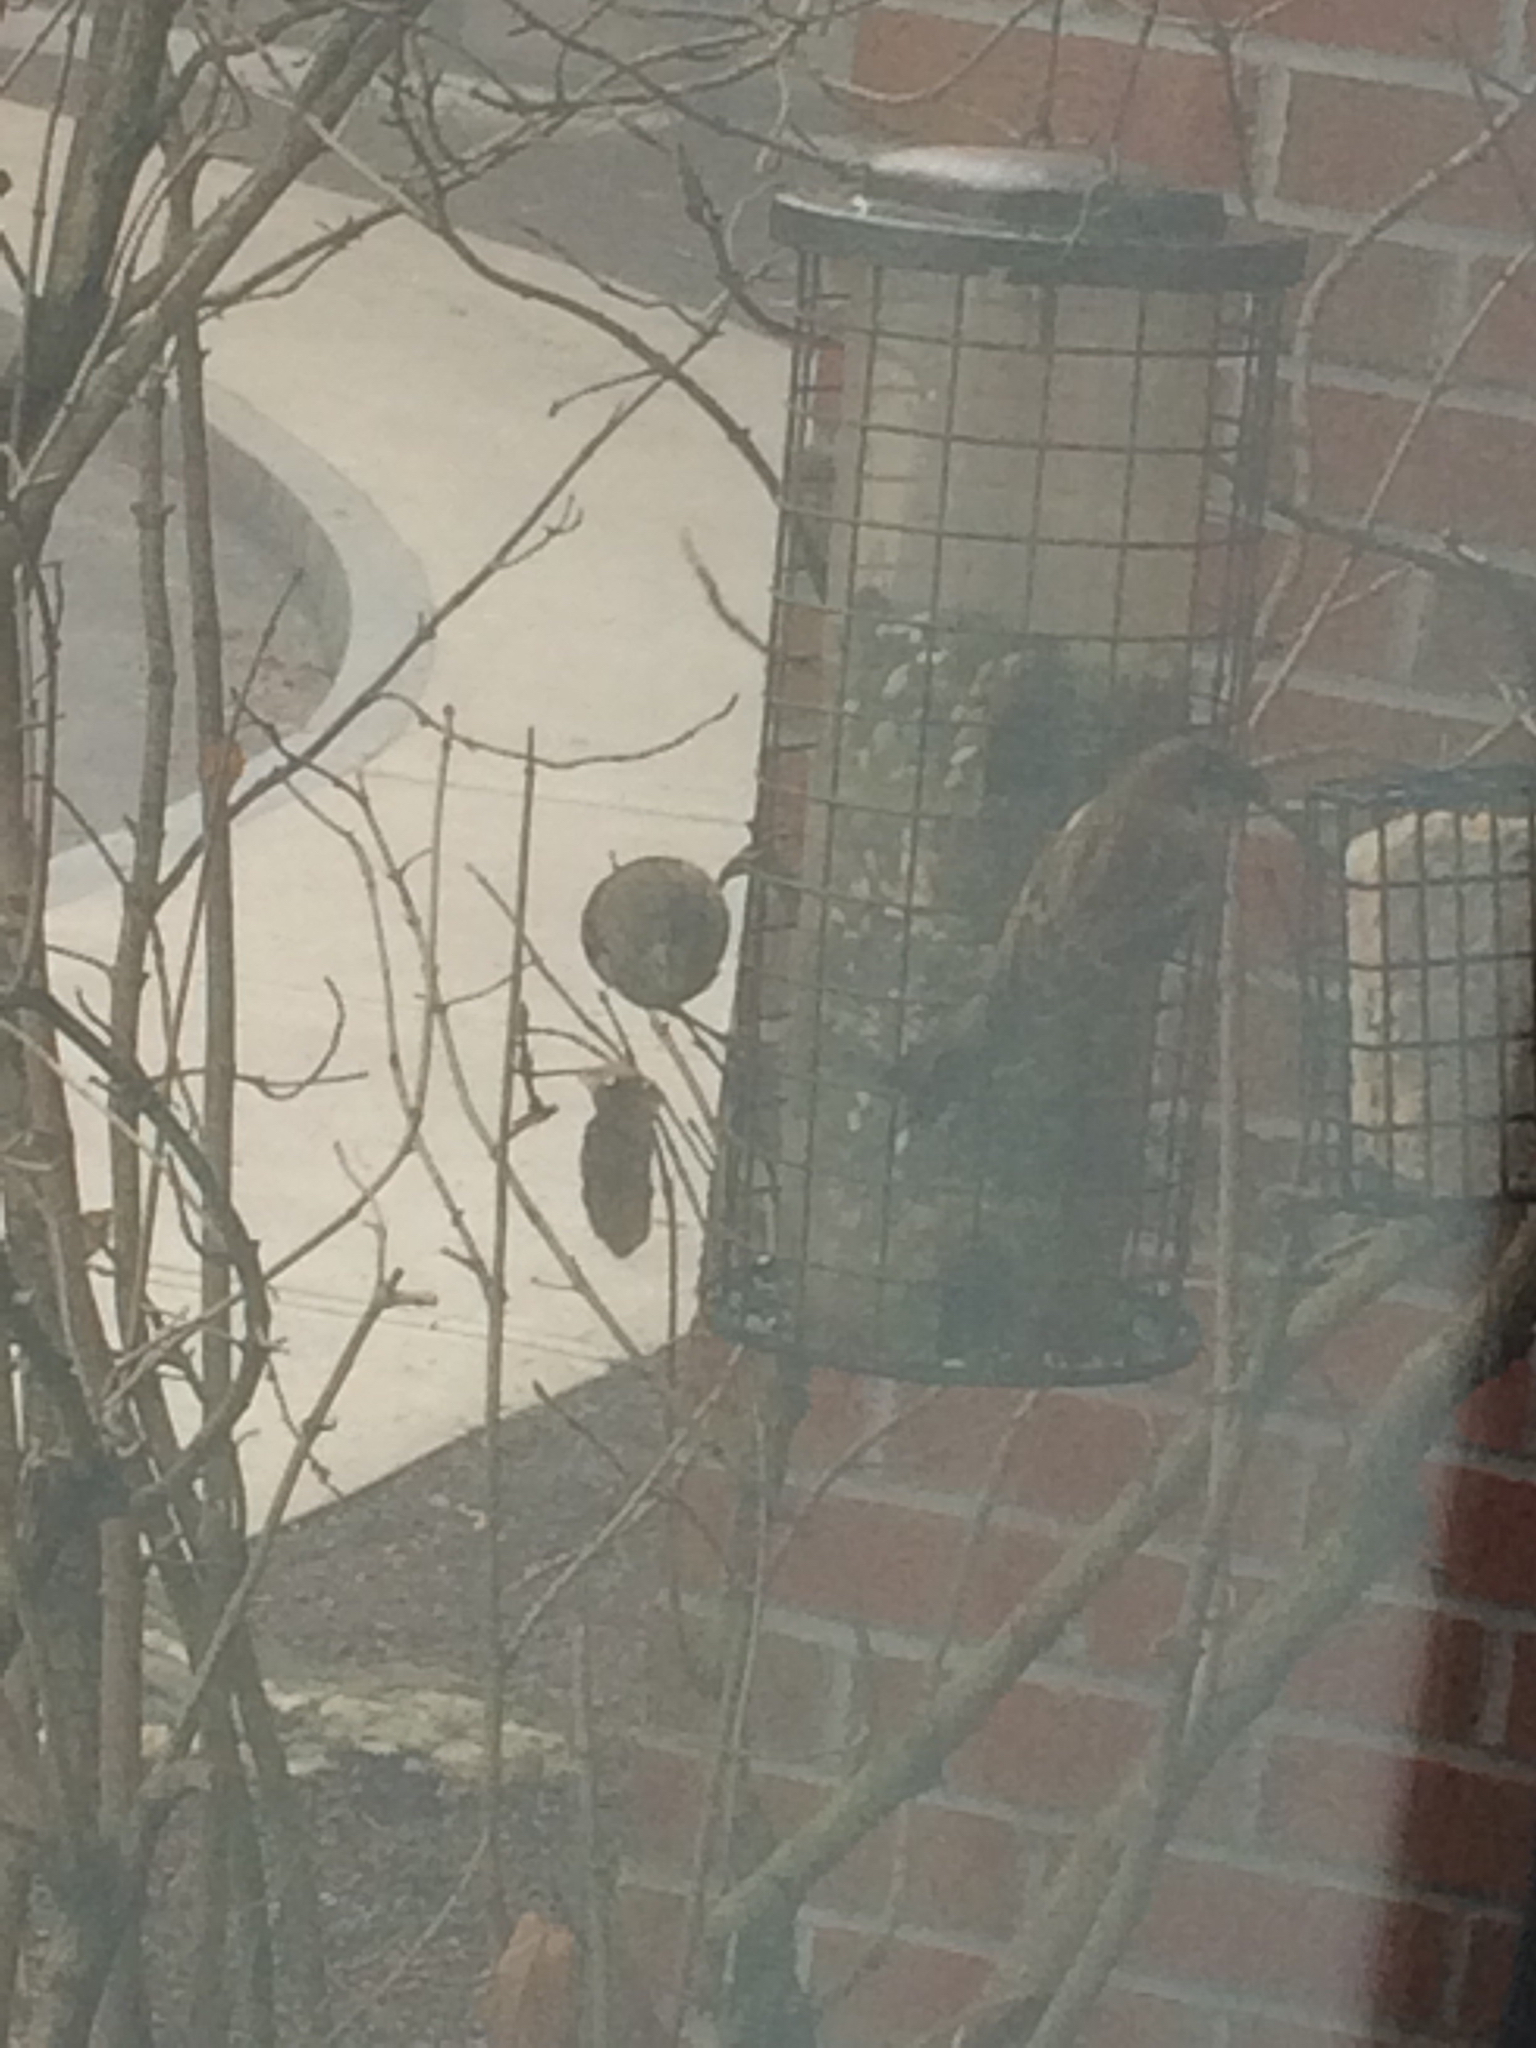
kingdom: Animalia
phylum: Chordata
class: Aves
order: Passeriformes
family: Passeridae
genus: Passer
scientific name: Passer domesticus
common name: House sparrow
